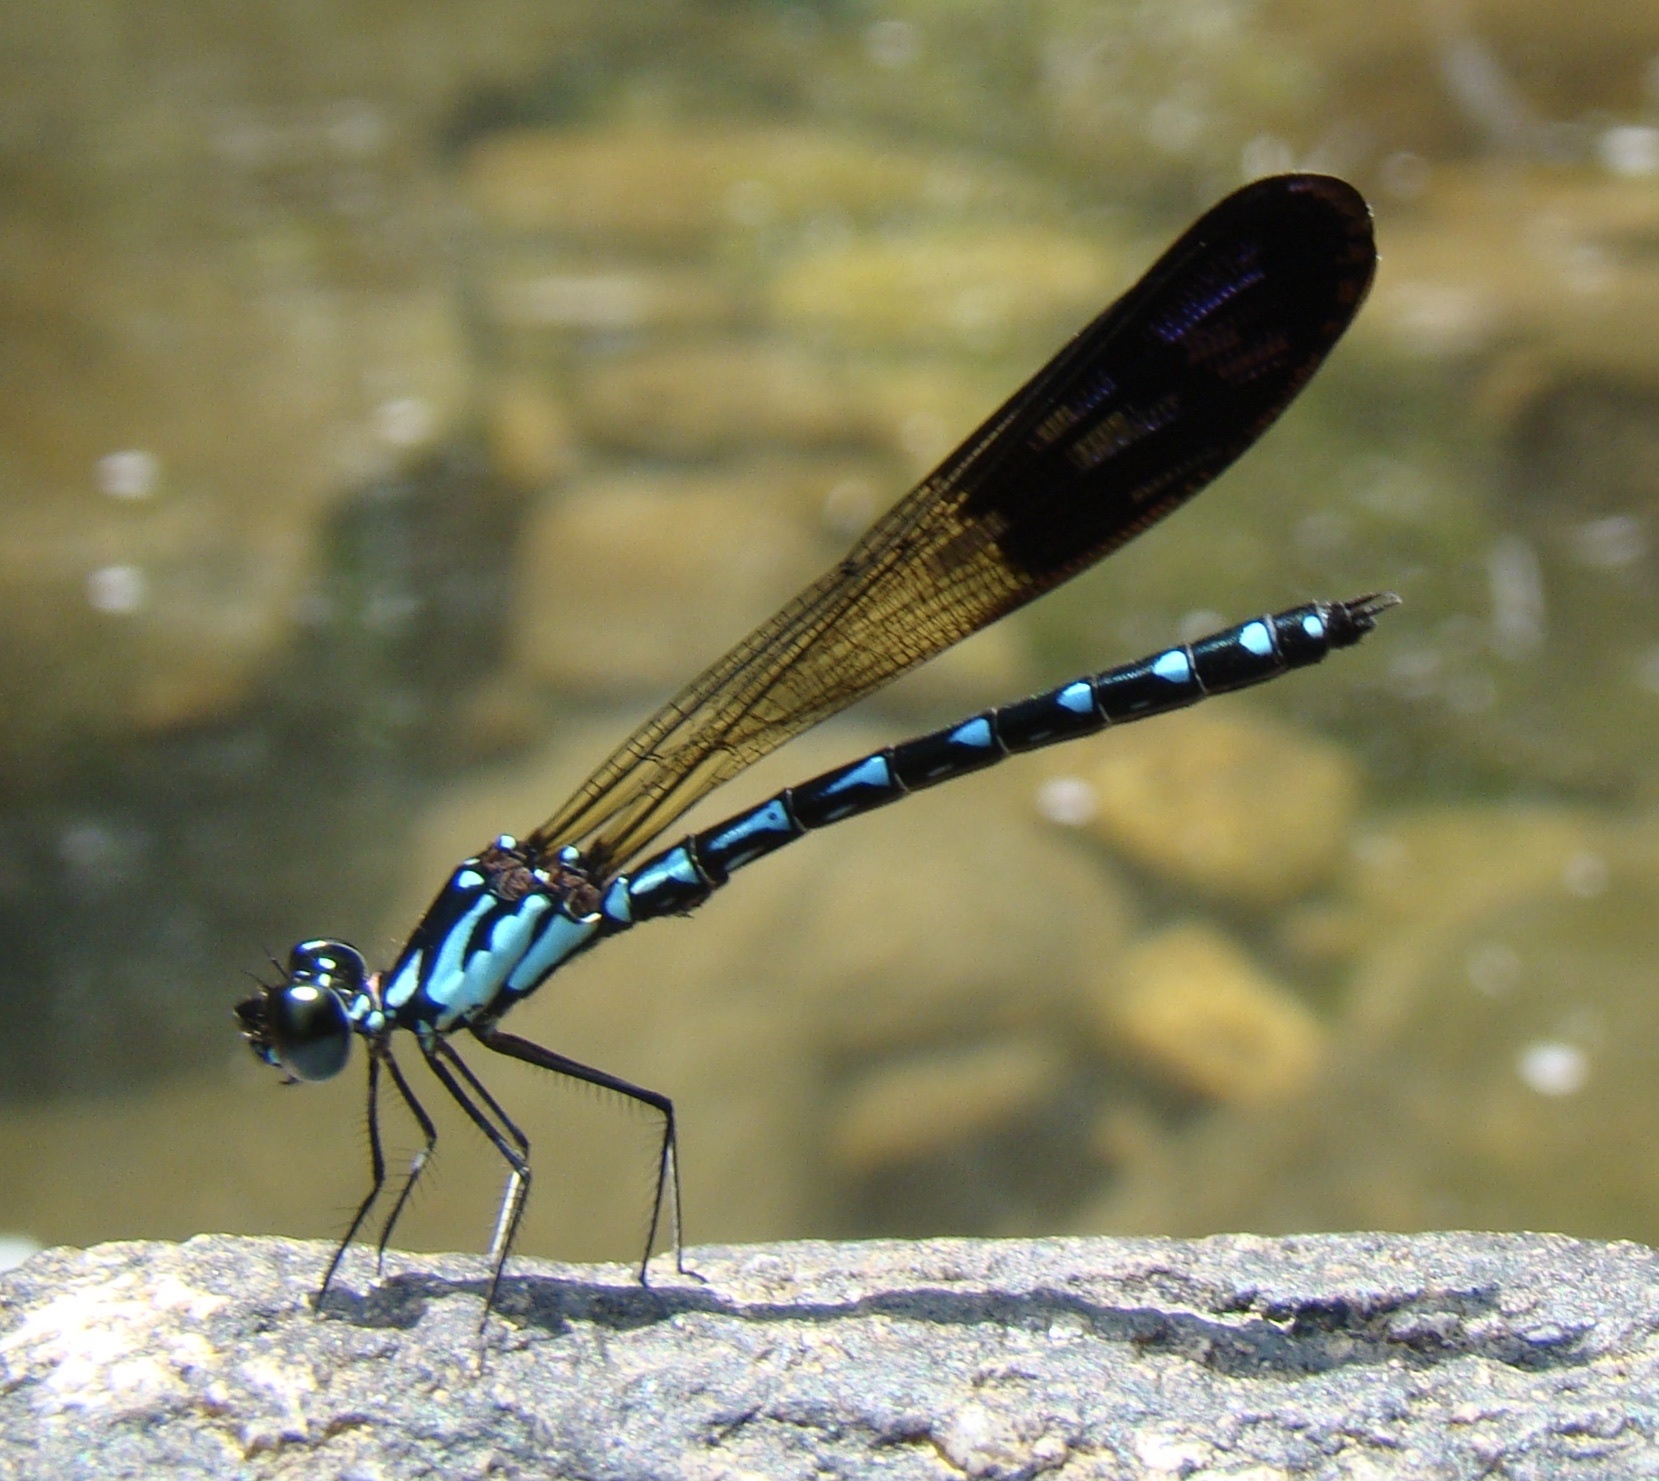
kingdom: Animalia
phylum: Arthropoda
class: Insecta
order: Odonata
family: Chlorocyphidae
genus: Heliocypha
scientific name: Heliocypha perforata
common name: Common blue jewel
